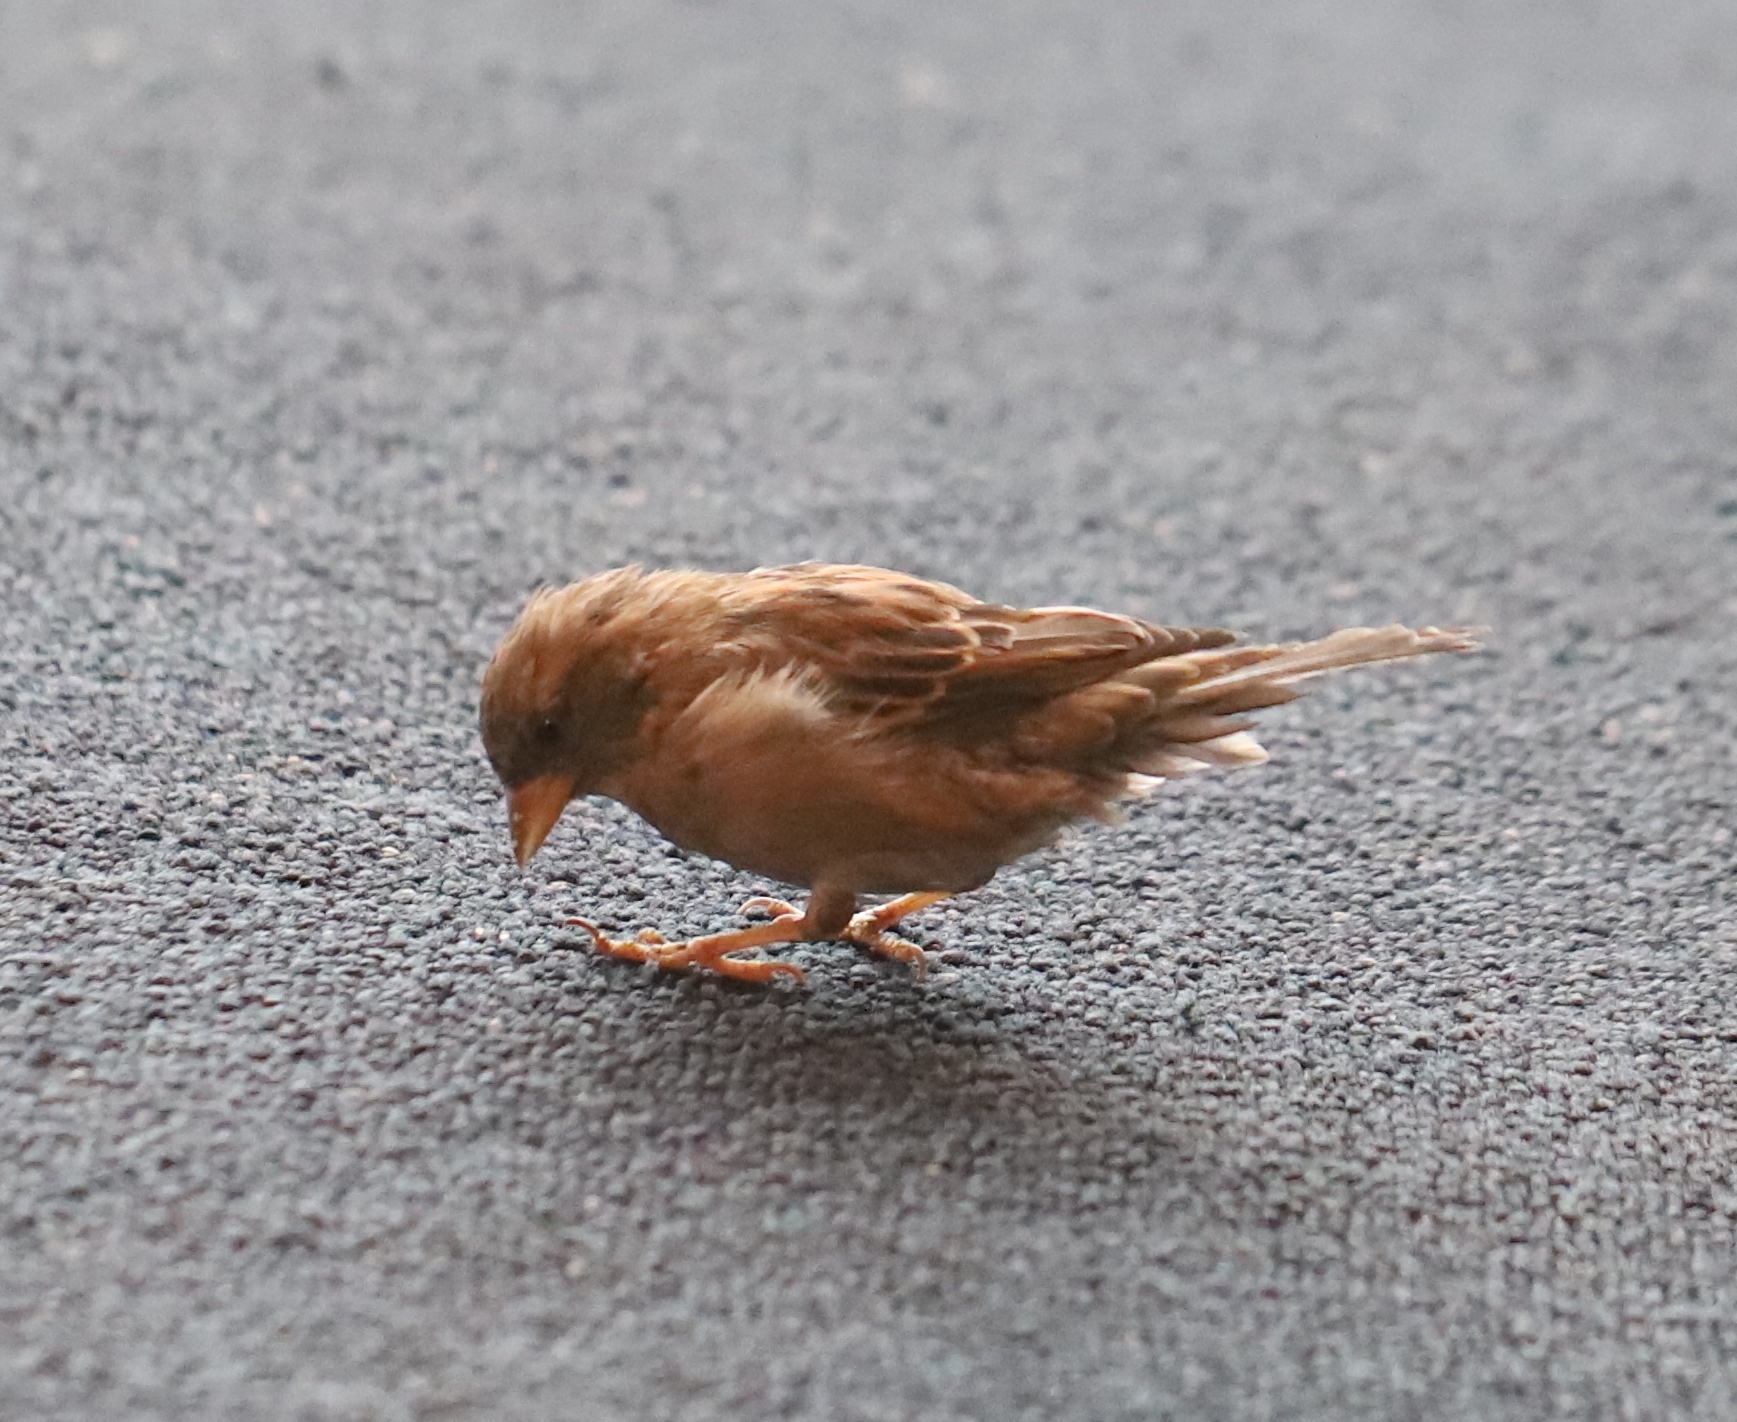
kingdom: Animalia
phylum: Chordata
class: Aves
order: Passeriformes
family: Passeridae
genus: Passer
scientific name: Passer domesticus
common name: House sparrow
